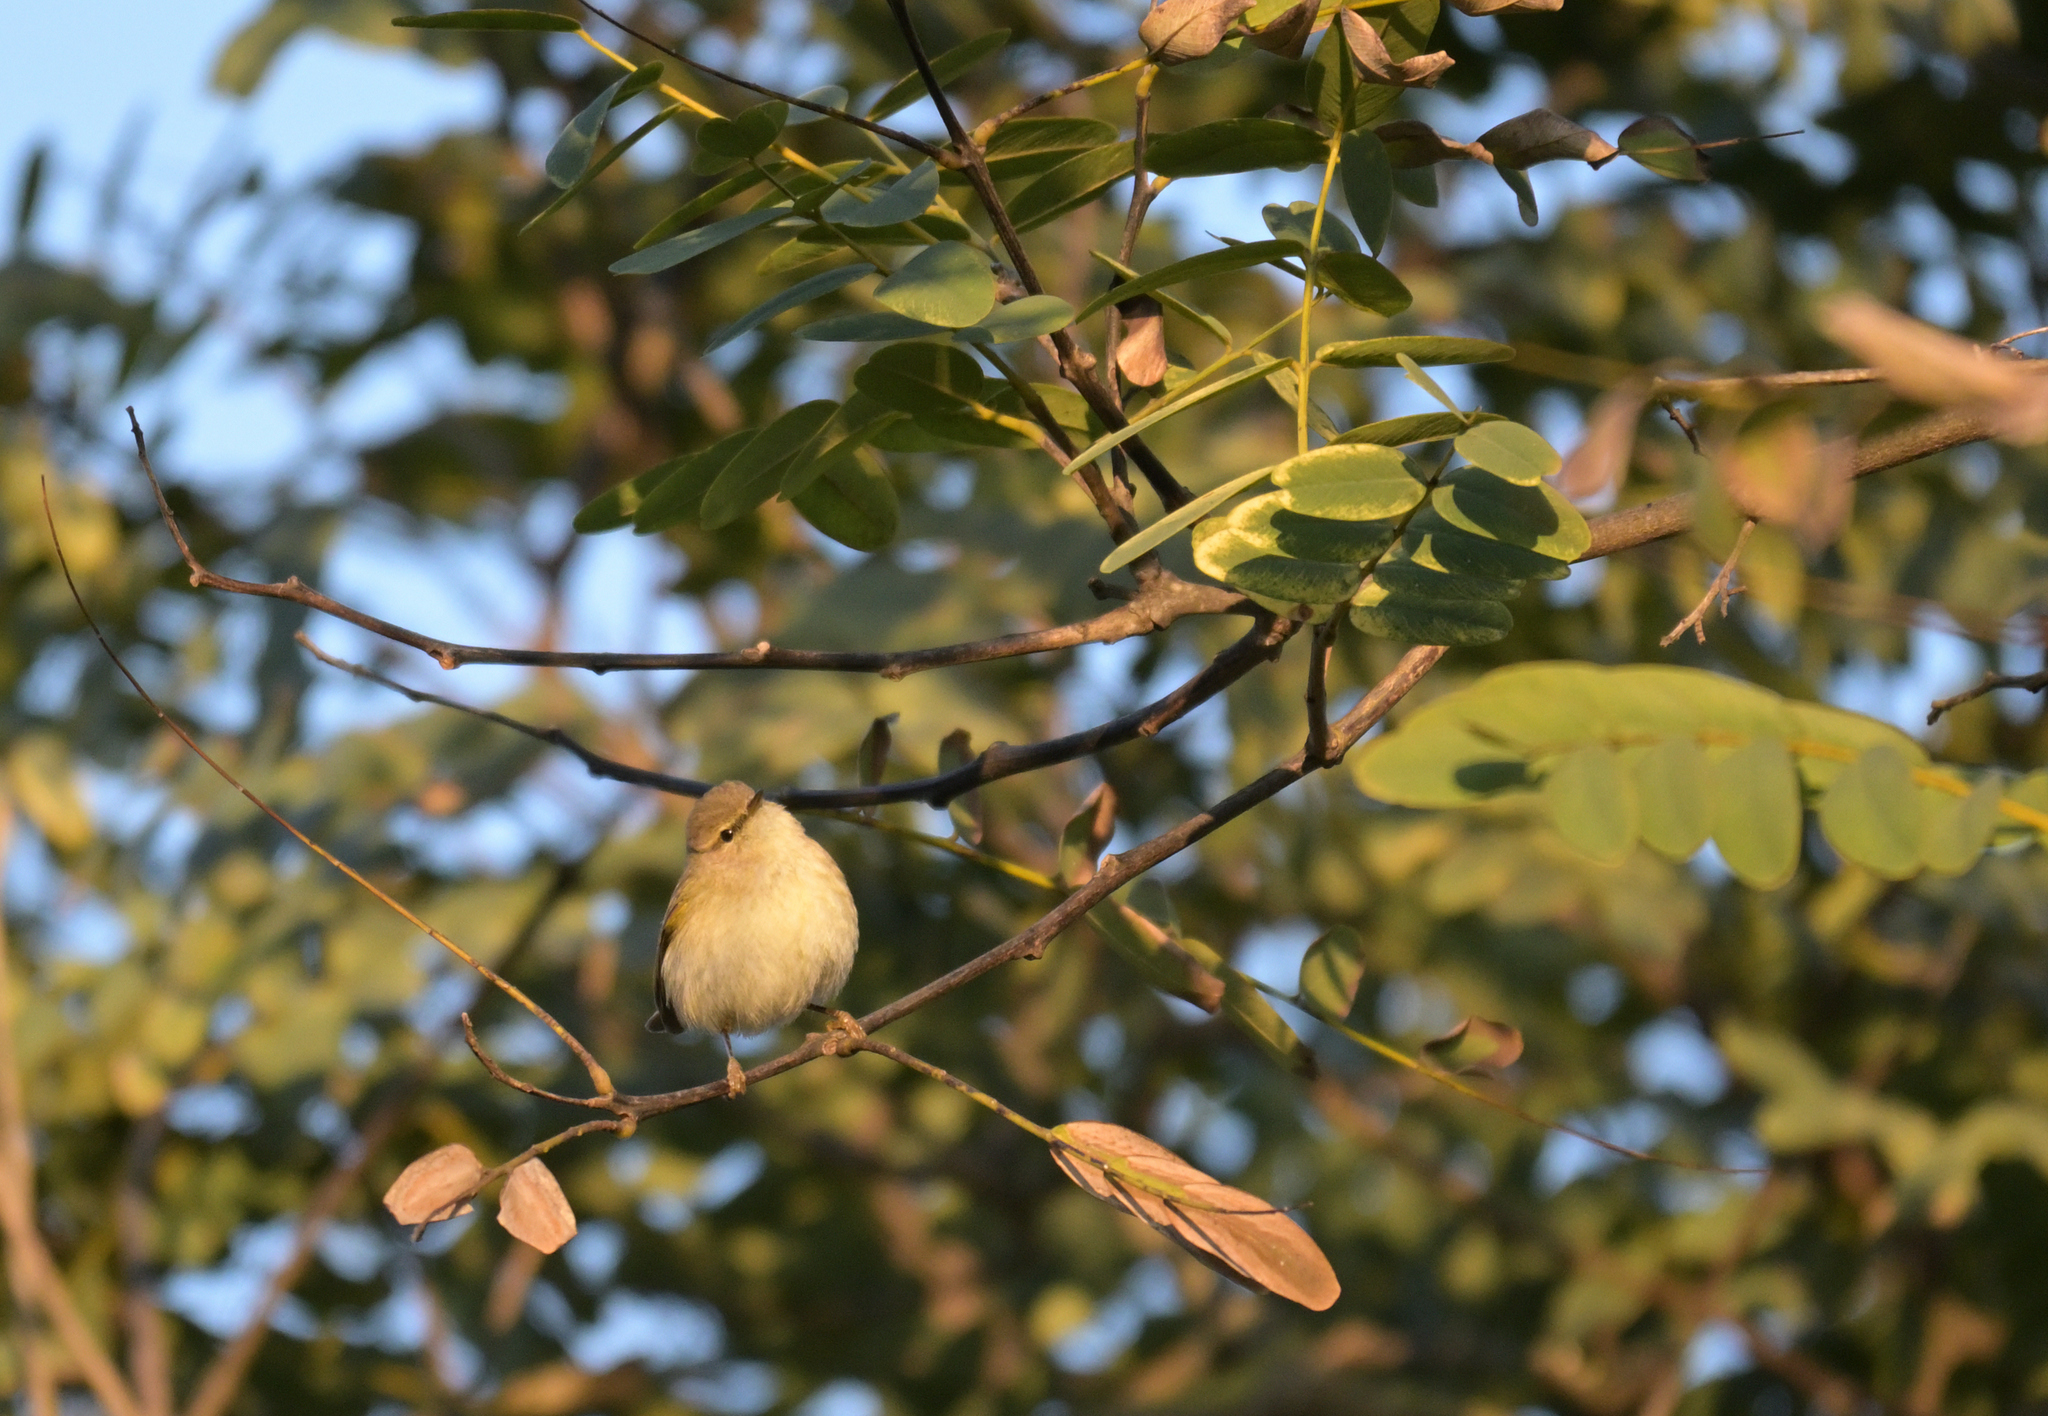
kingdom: Animalia
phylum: Chordata
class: Aves
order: Passeriformes
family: Phylloscopidae
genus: Phylloscopus
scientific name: Phylloscopus collybita
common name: Common chiffchaff
